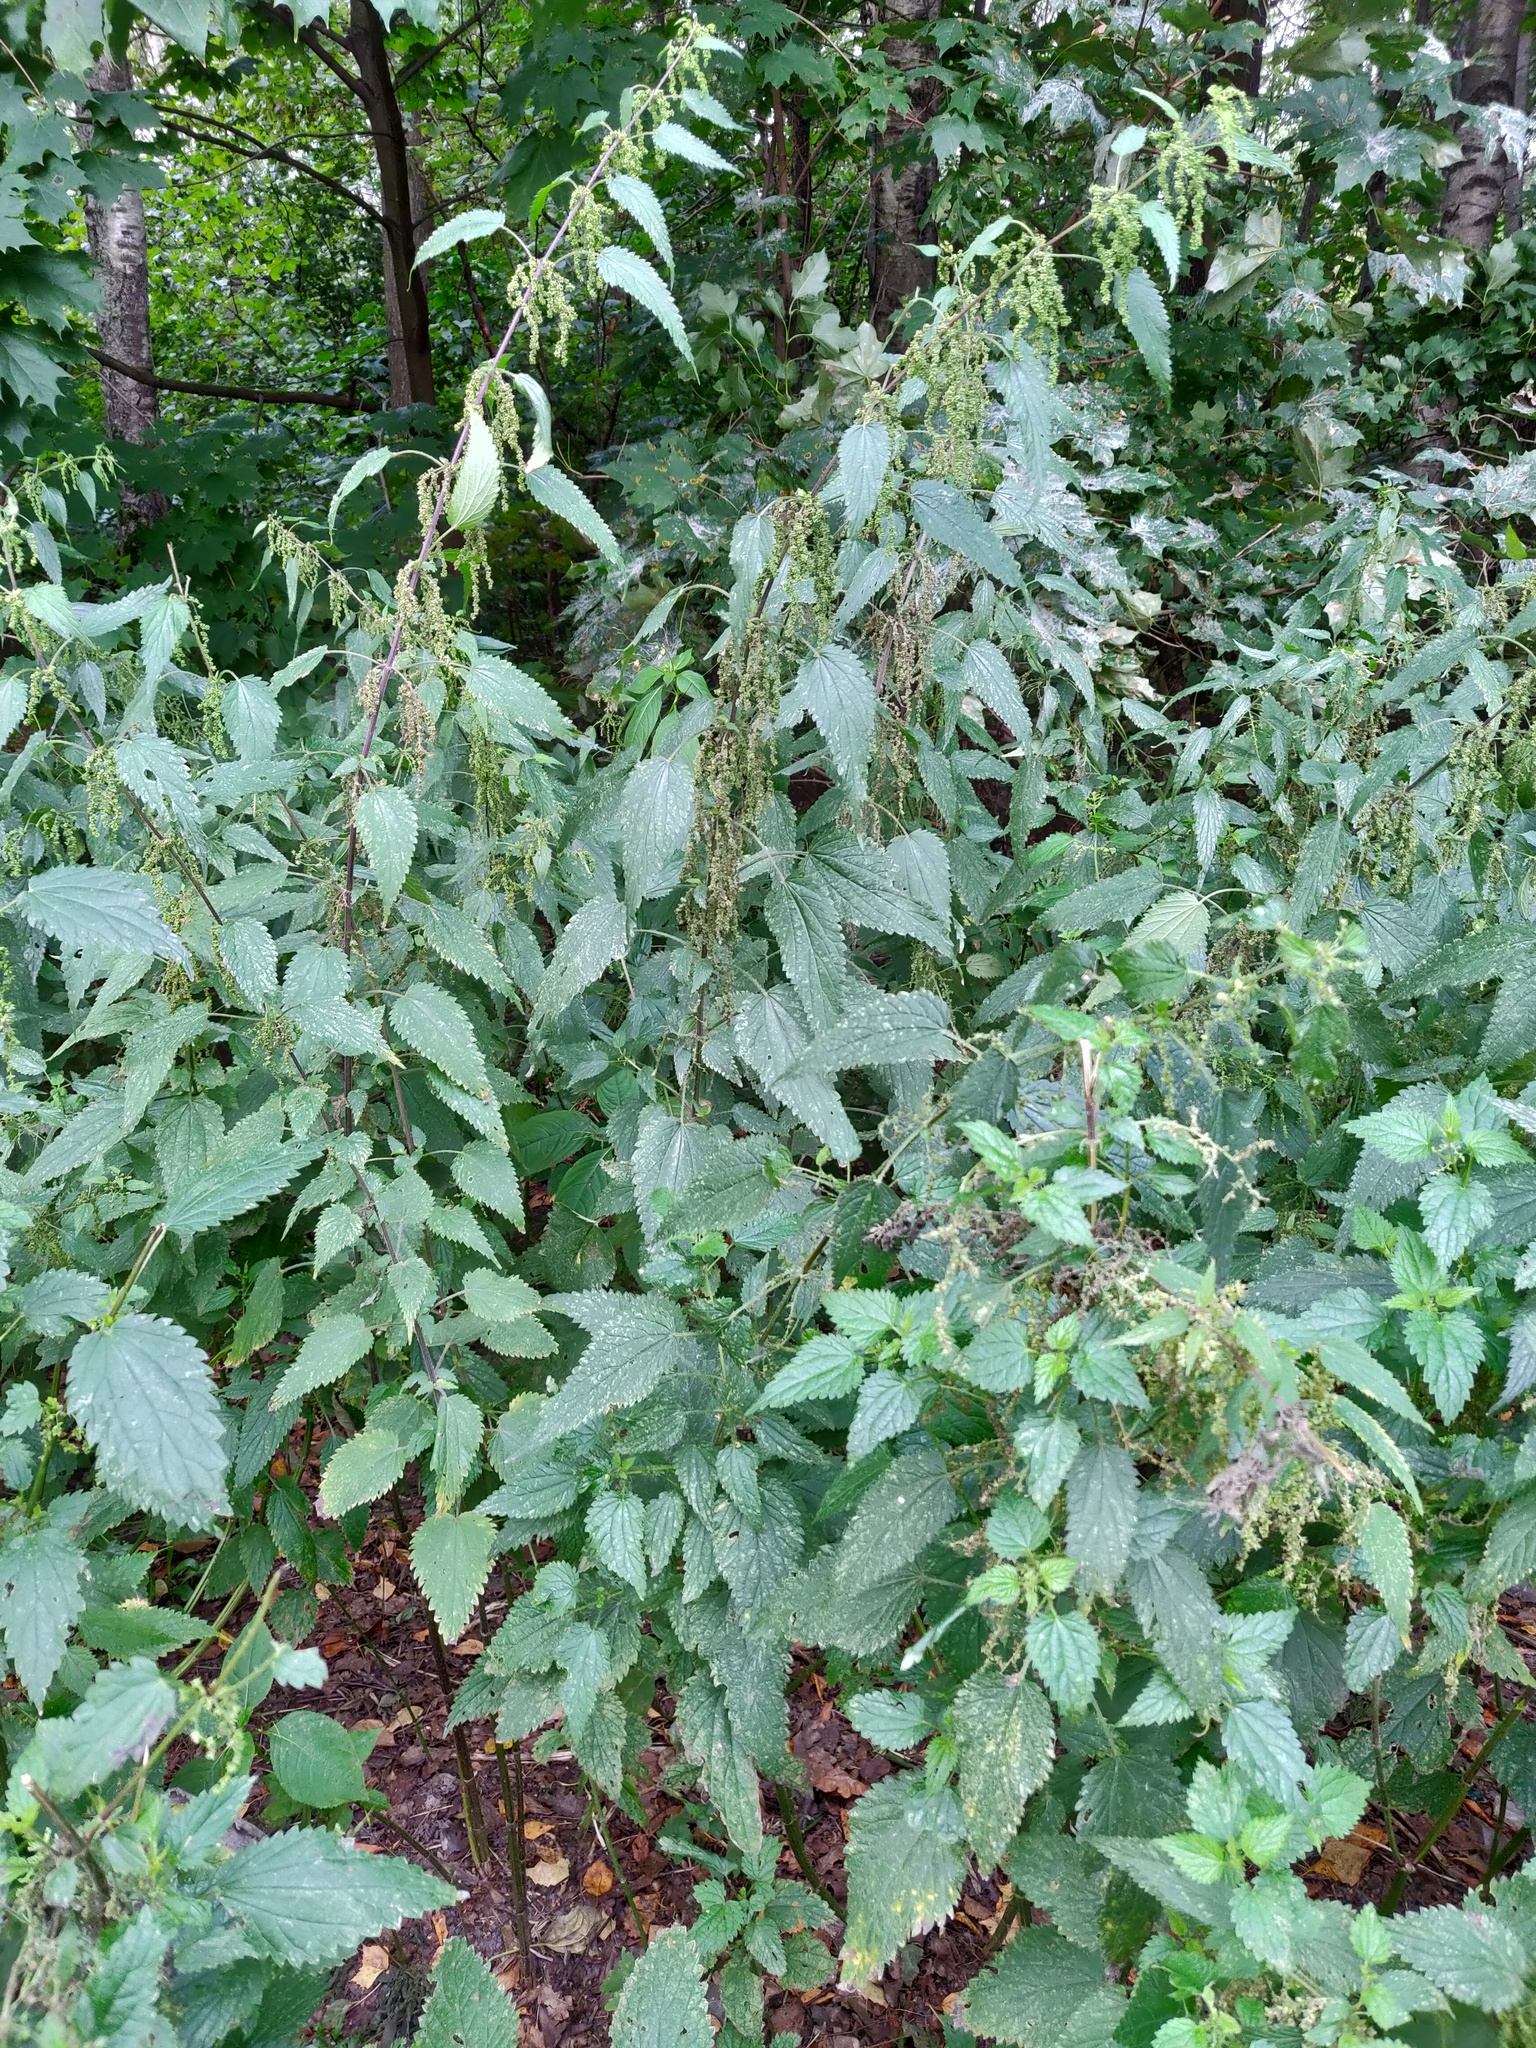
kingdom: Plantae
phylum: Tracheophyta
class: Magnoliopsida
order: Rosales
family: Urticaceae
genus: Urtica
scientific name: Urtica dioica
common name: Common nettle
